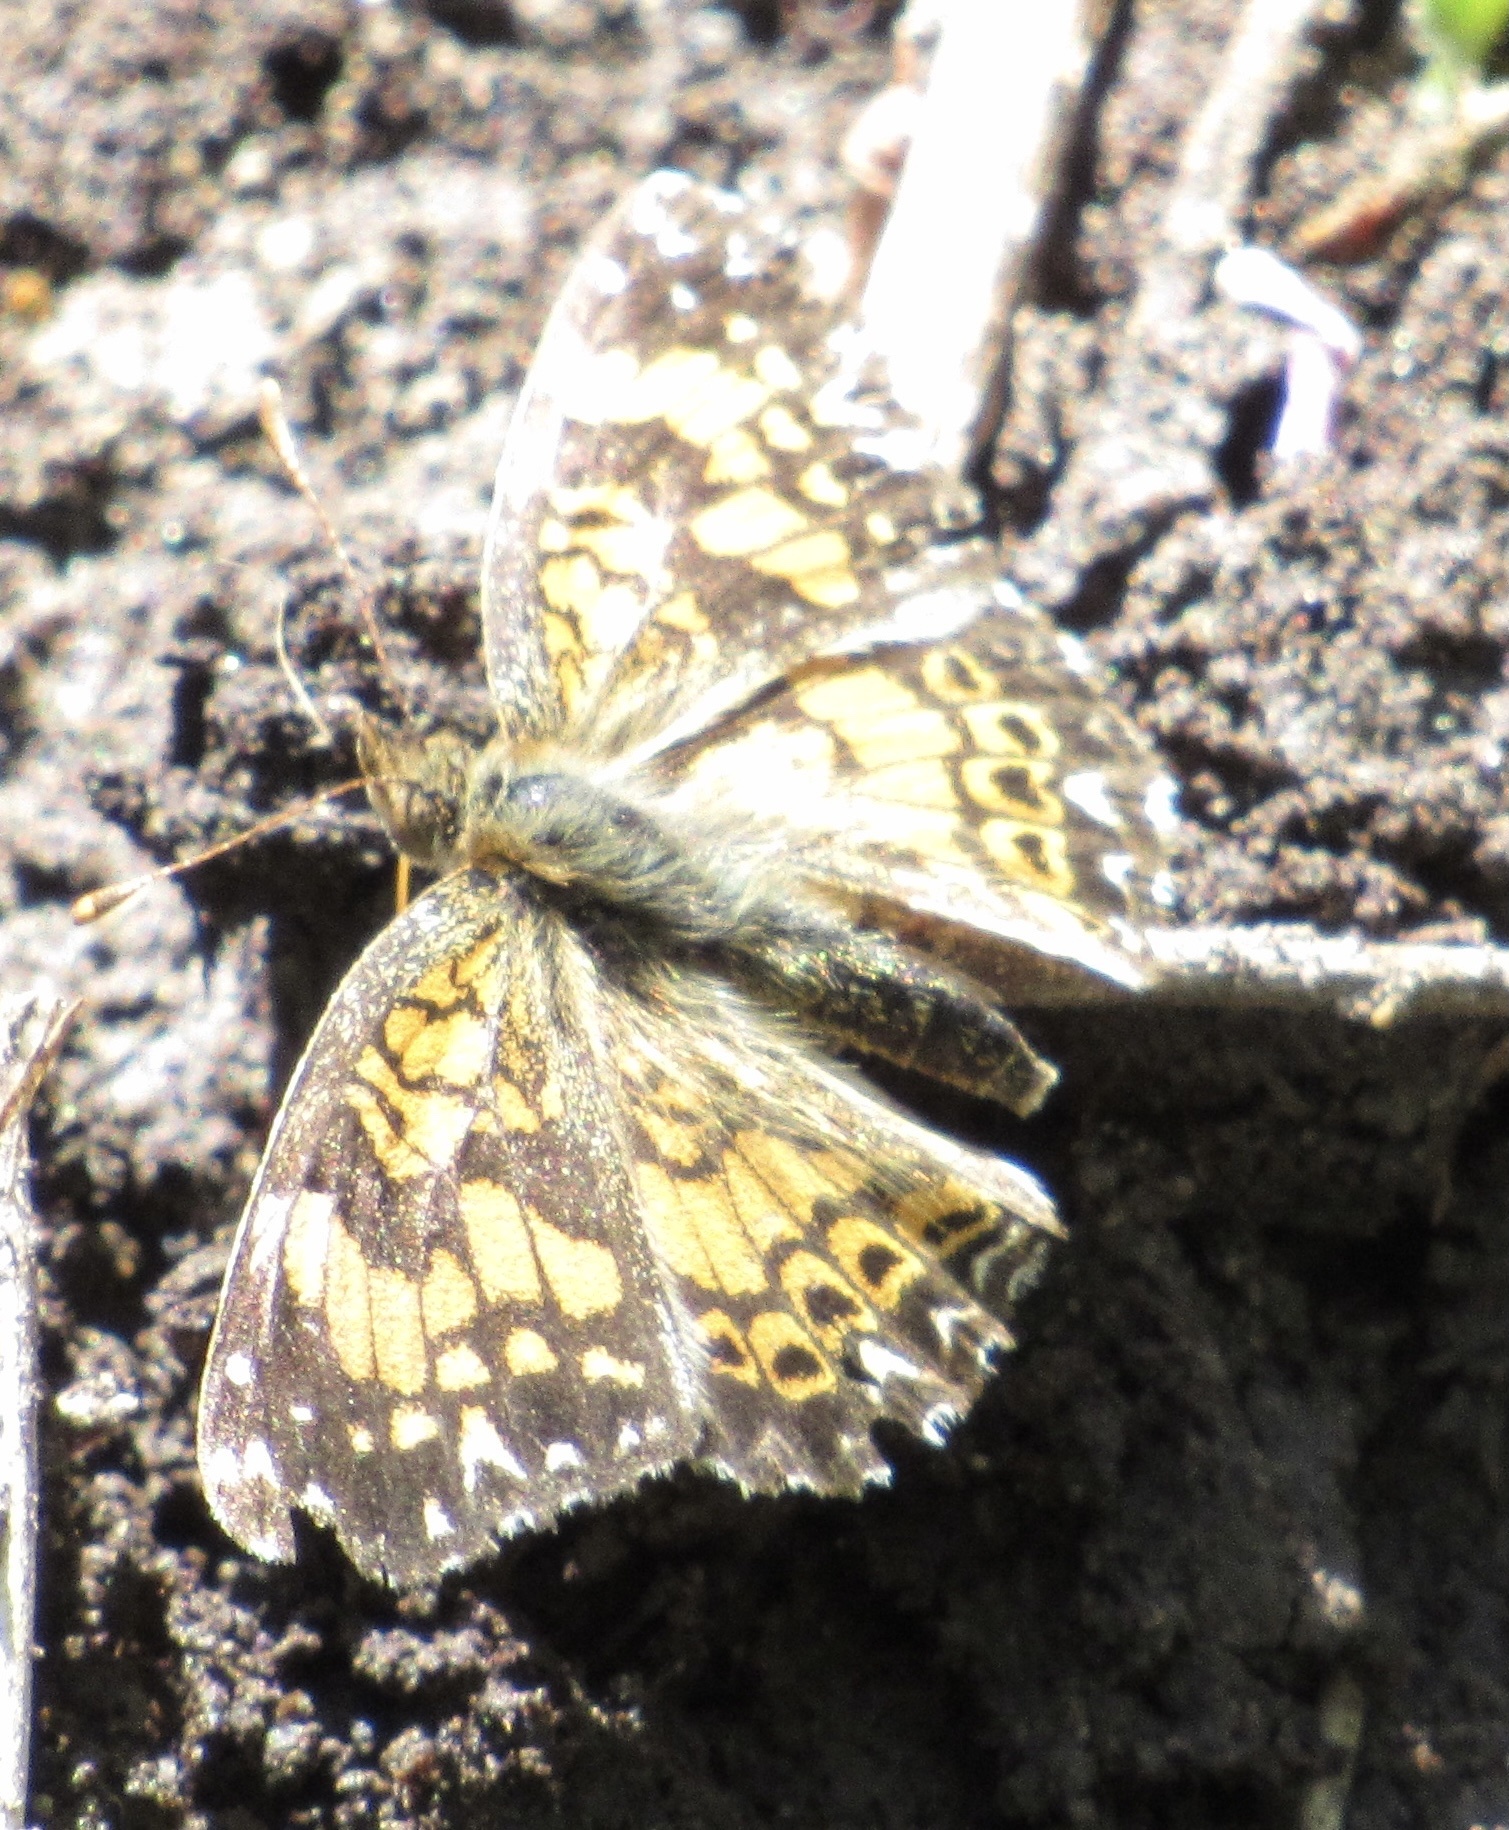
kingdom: Animalia
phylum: Arthropoda
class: Insecta
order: Lepidoptera
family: Nymphalidae
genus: Chlosyne
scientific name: Chlosyne gorgone
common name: Gorgone checkerspot
